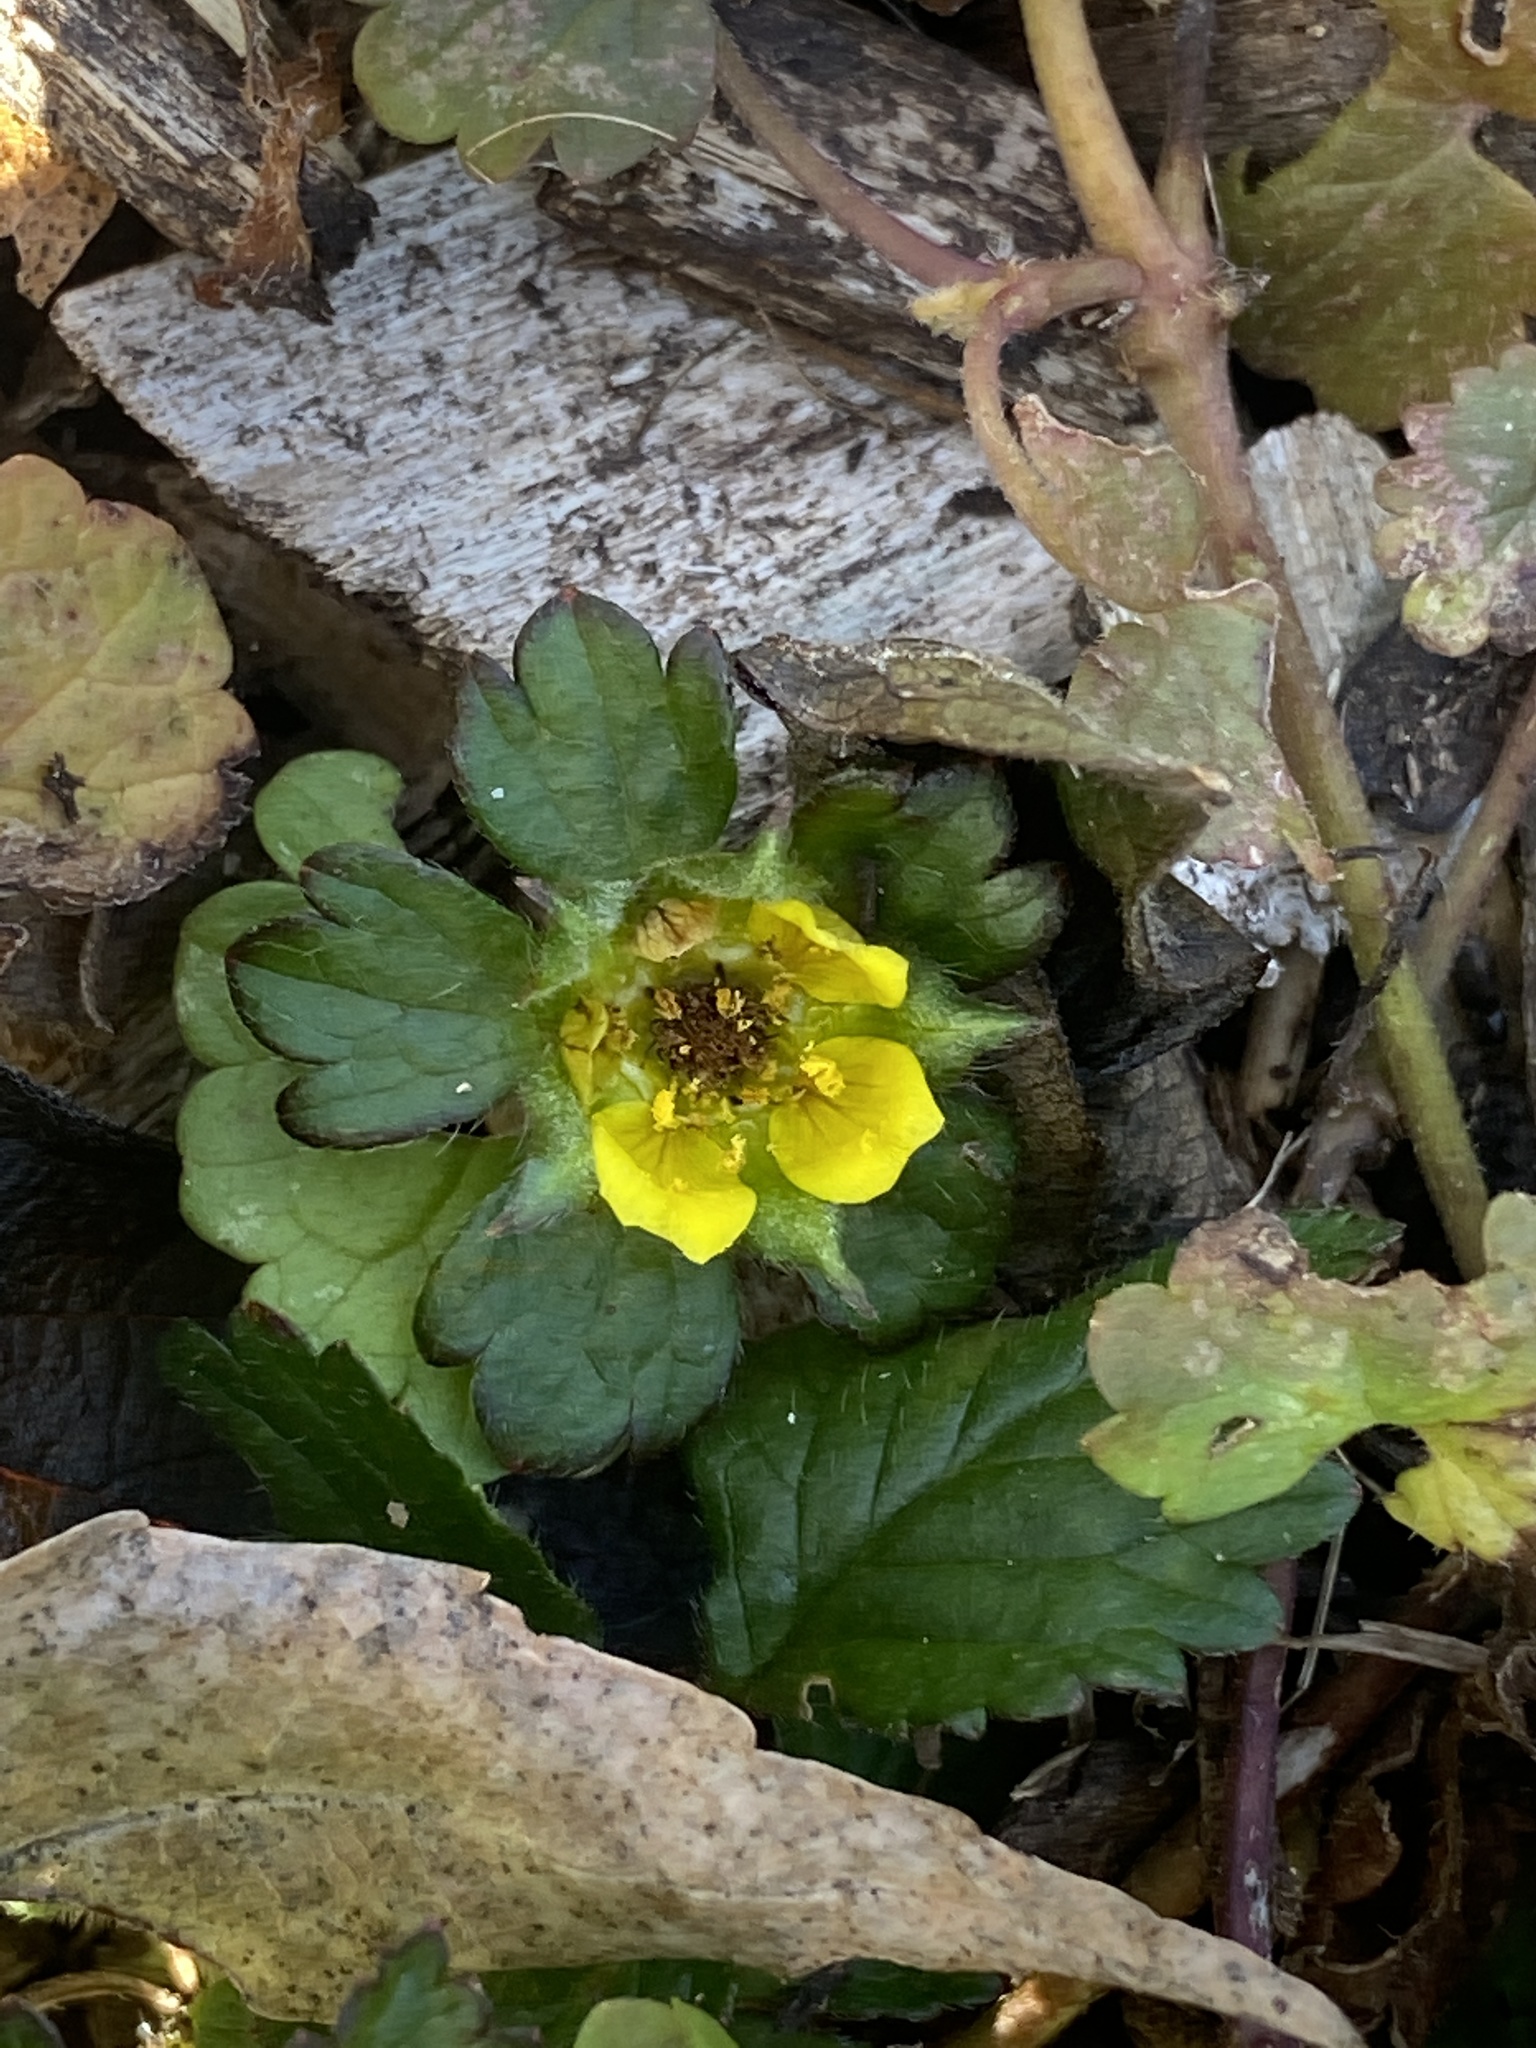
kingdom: Plantae
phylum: Tracheophyta
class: Magnoliopsida
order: Rosales
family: Rosaceae
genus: Potentilla
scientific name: Potentilla indica
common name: Yellow-flowered strawberry
